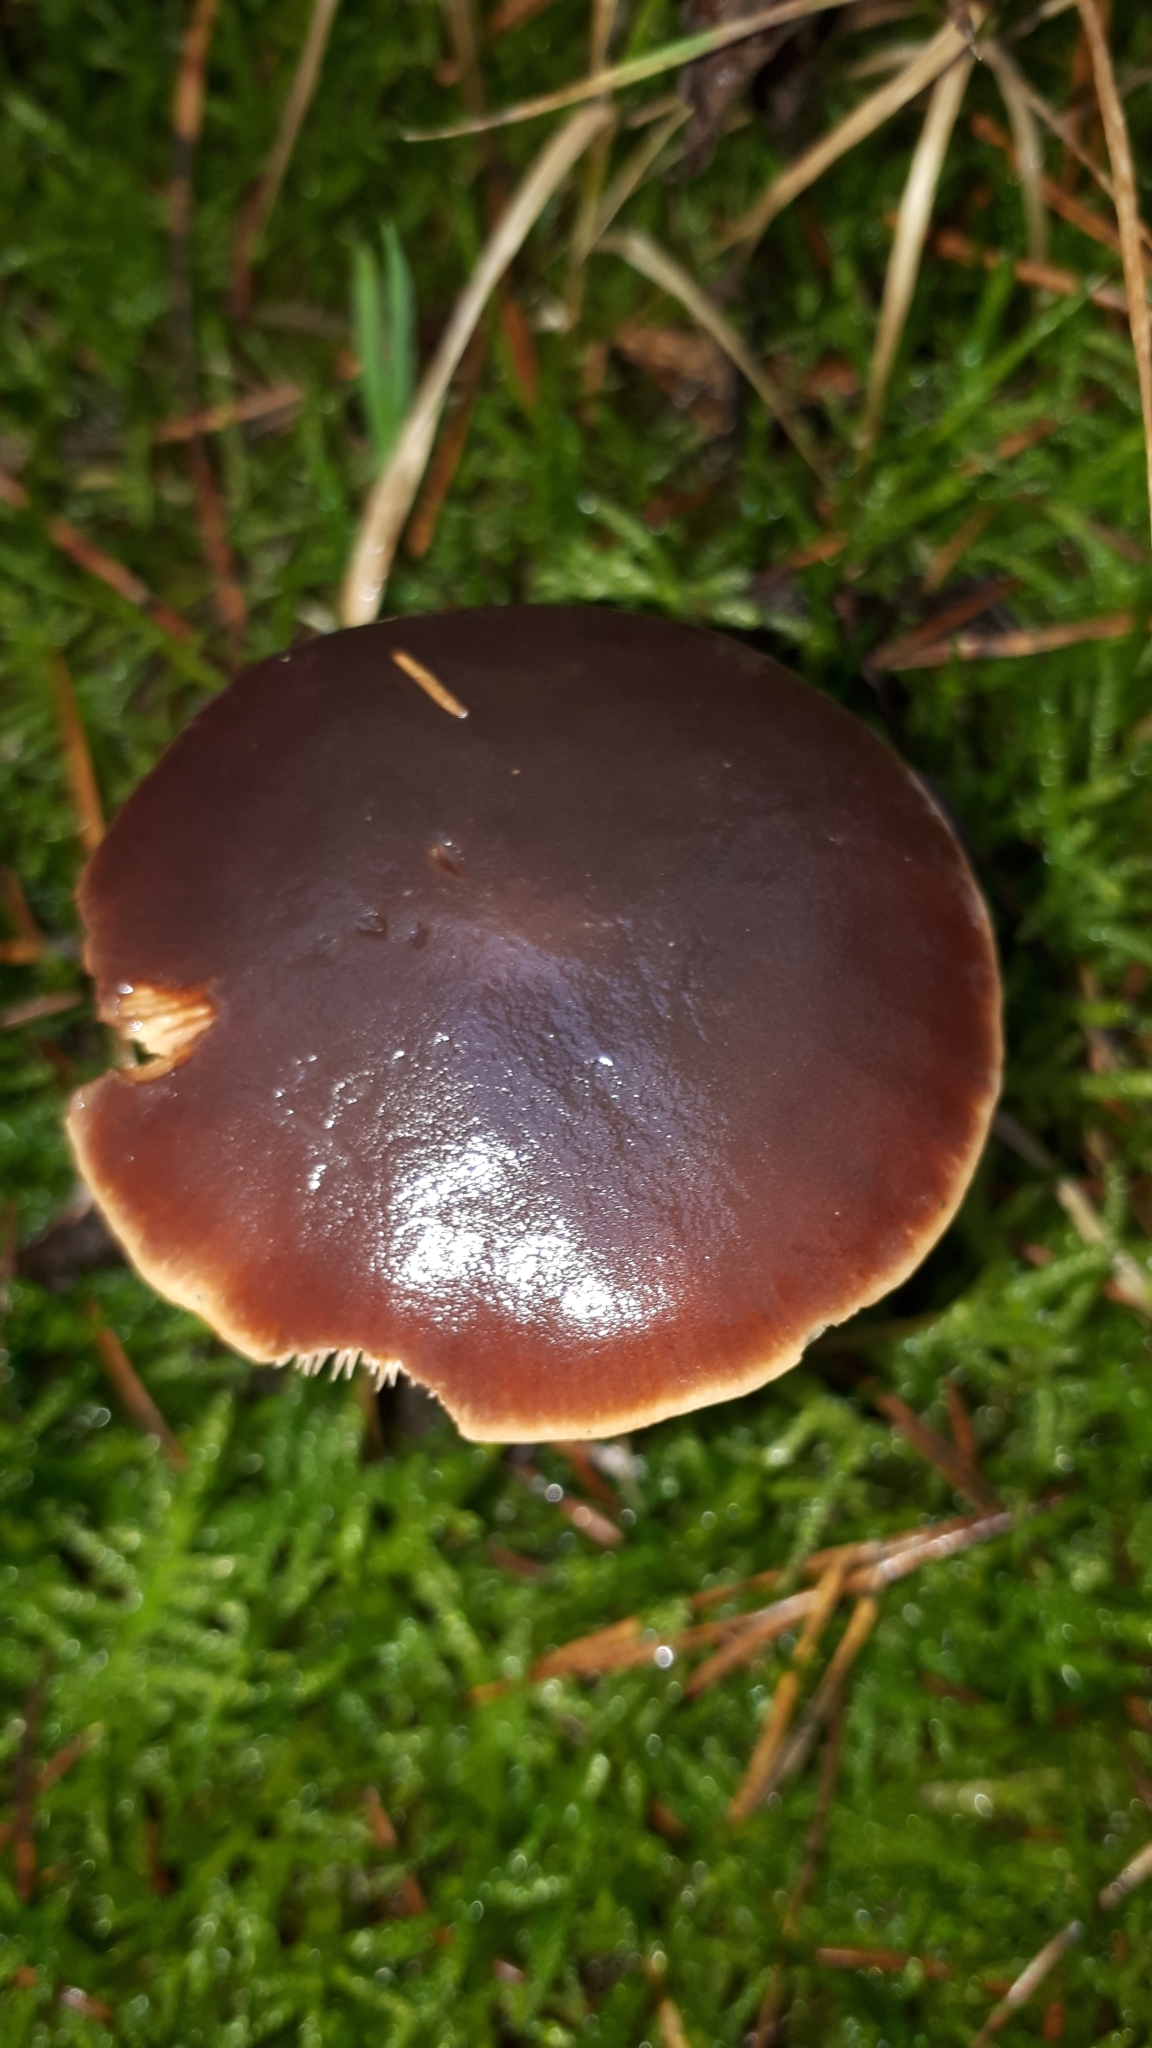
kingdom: Fungi
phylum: Basidiomycota
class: Agaricomycetes
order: Agaricales
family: Macrocystidiaceae
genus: Macrocystidia
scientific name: Macrocystidia cucumis
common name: Cucumber cap
